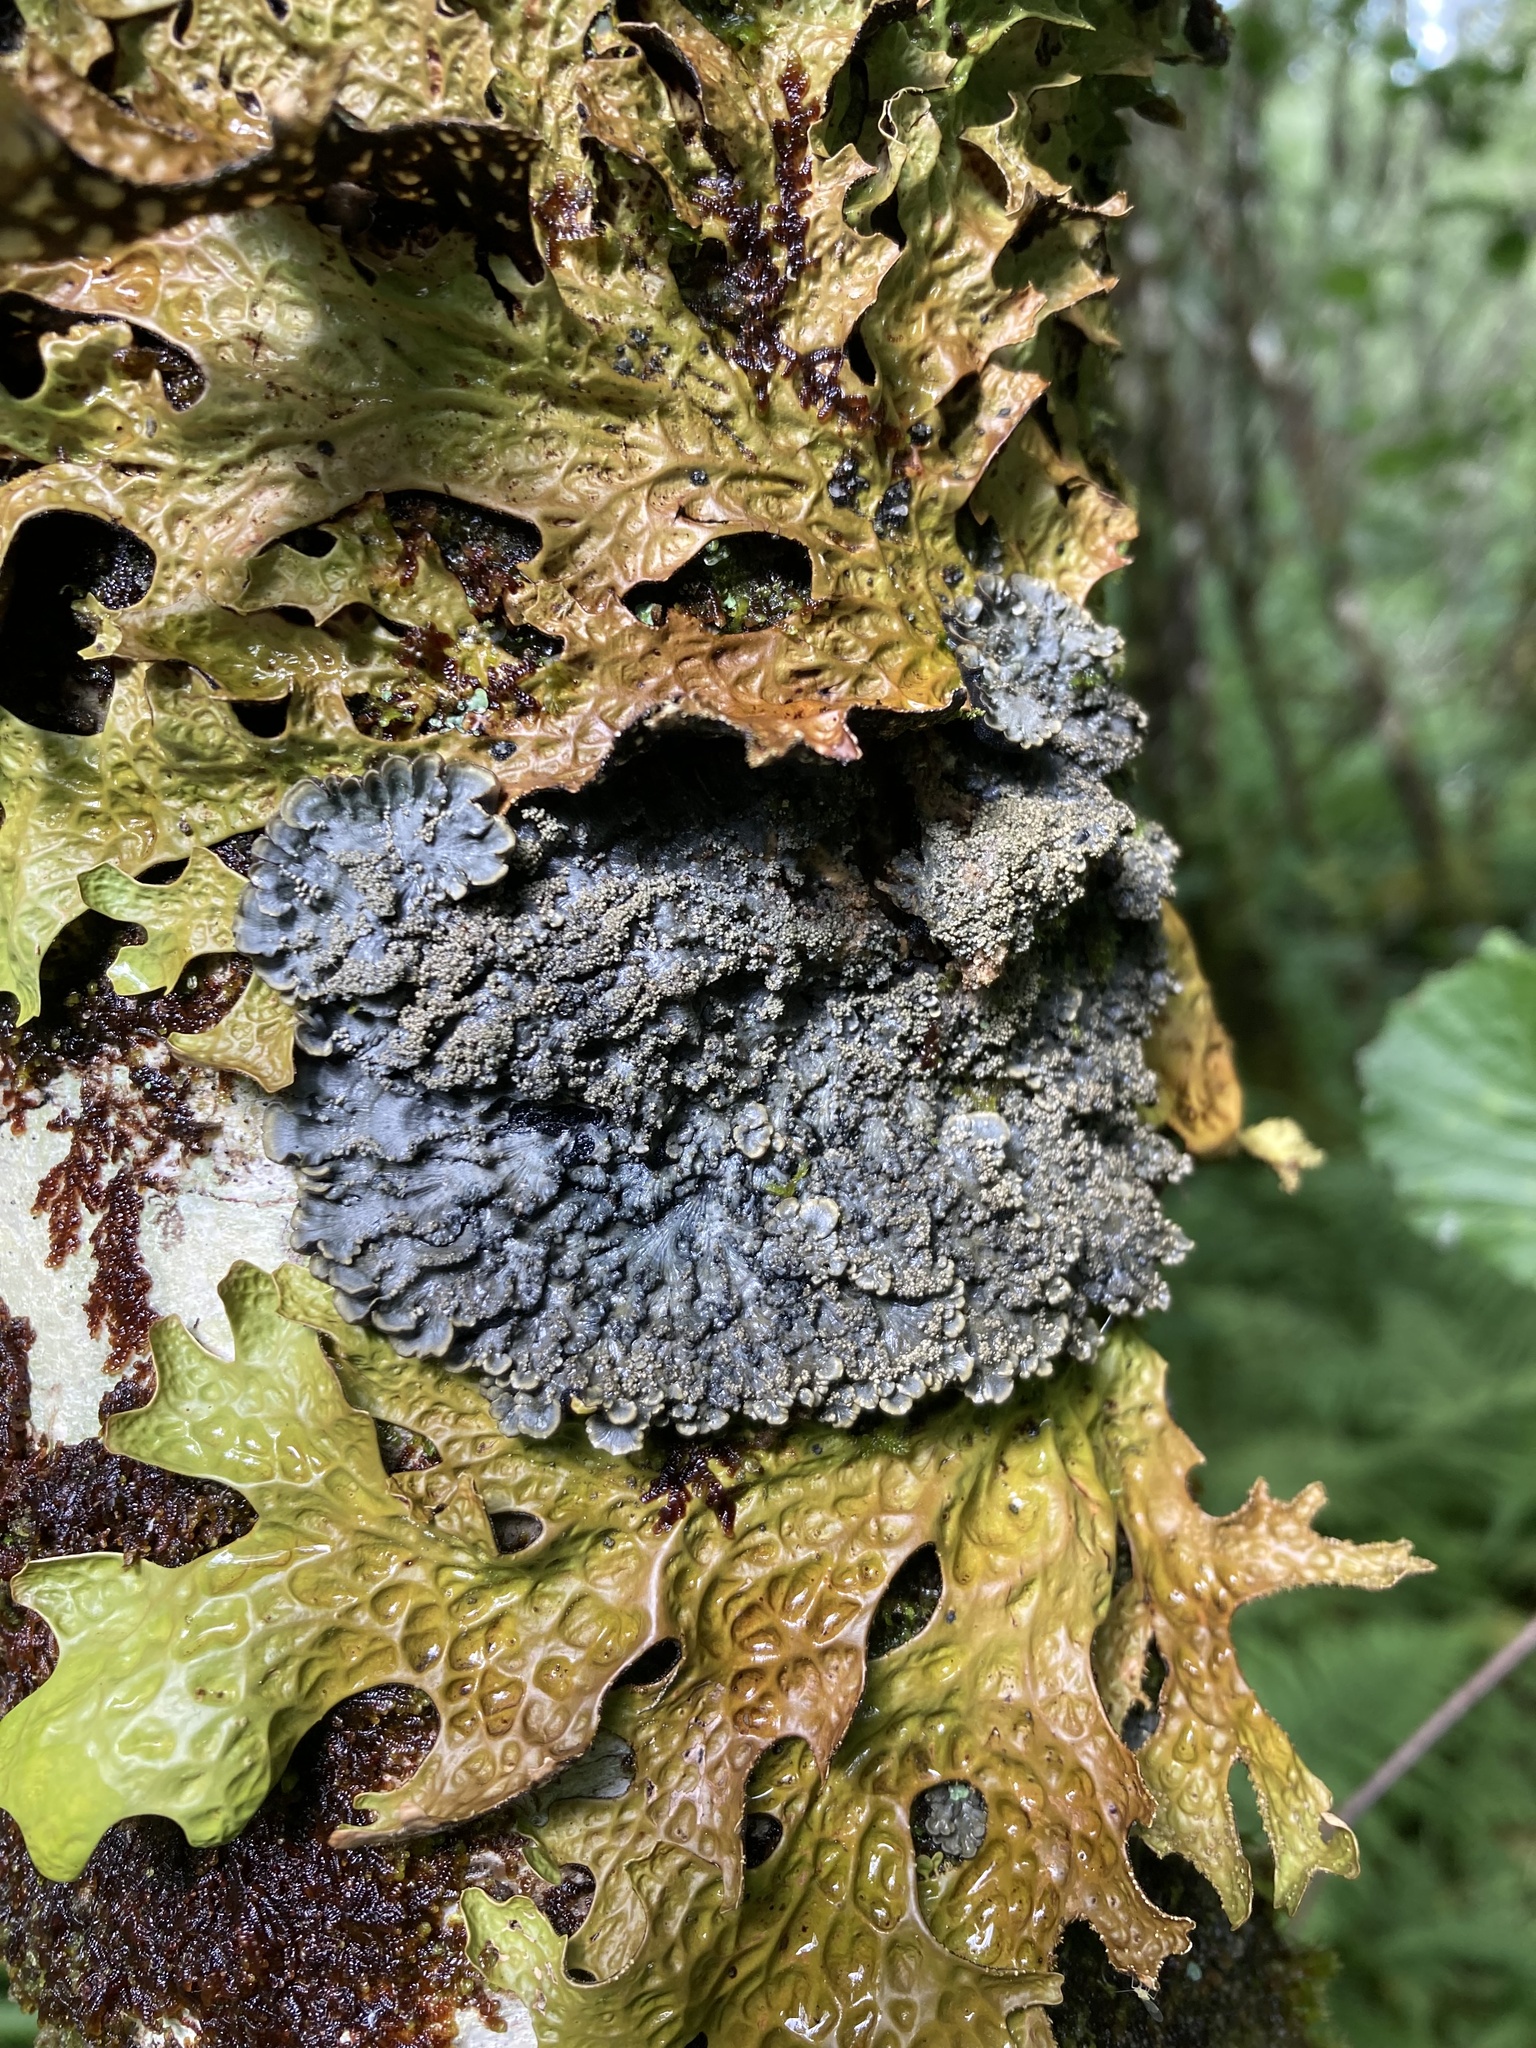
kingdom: Fungi
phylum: Ascomycota
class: Lecanoromycetes
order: Peltigerales
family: Pannariaceae
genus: Pectenia
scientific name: Pectenia atlantica
